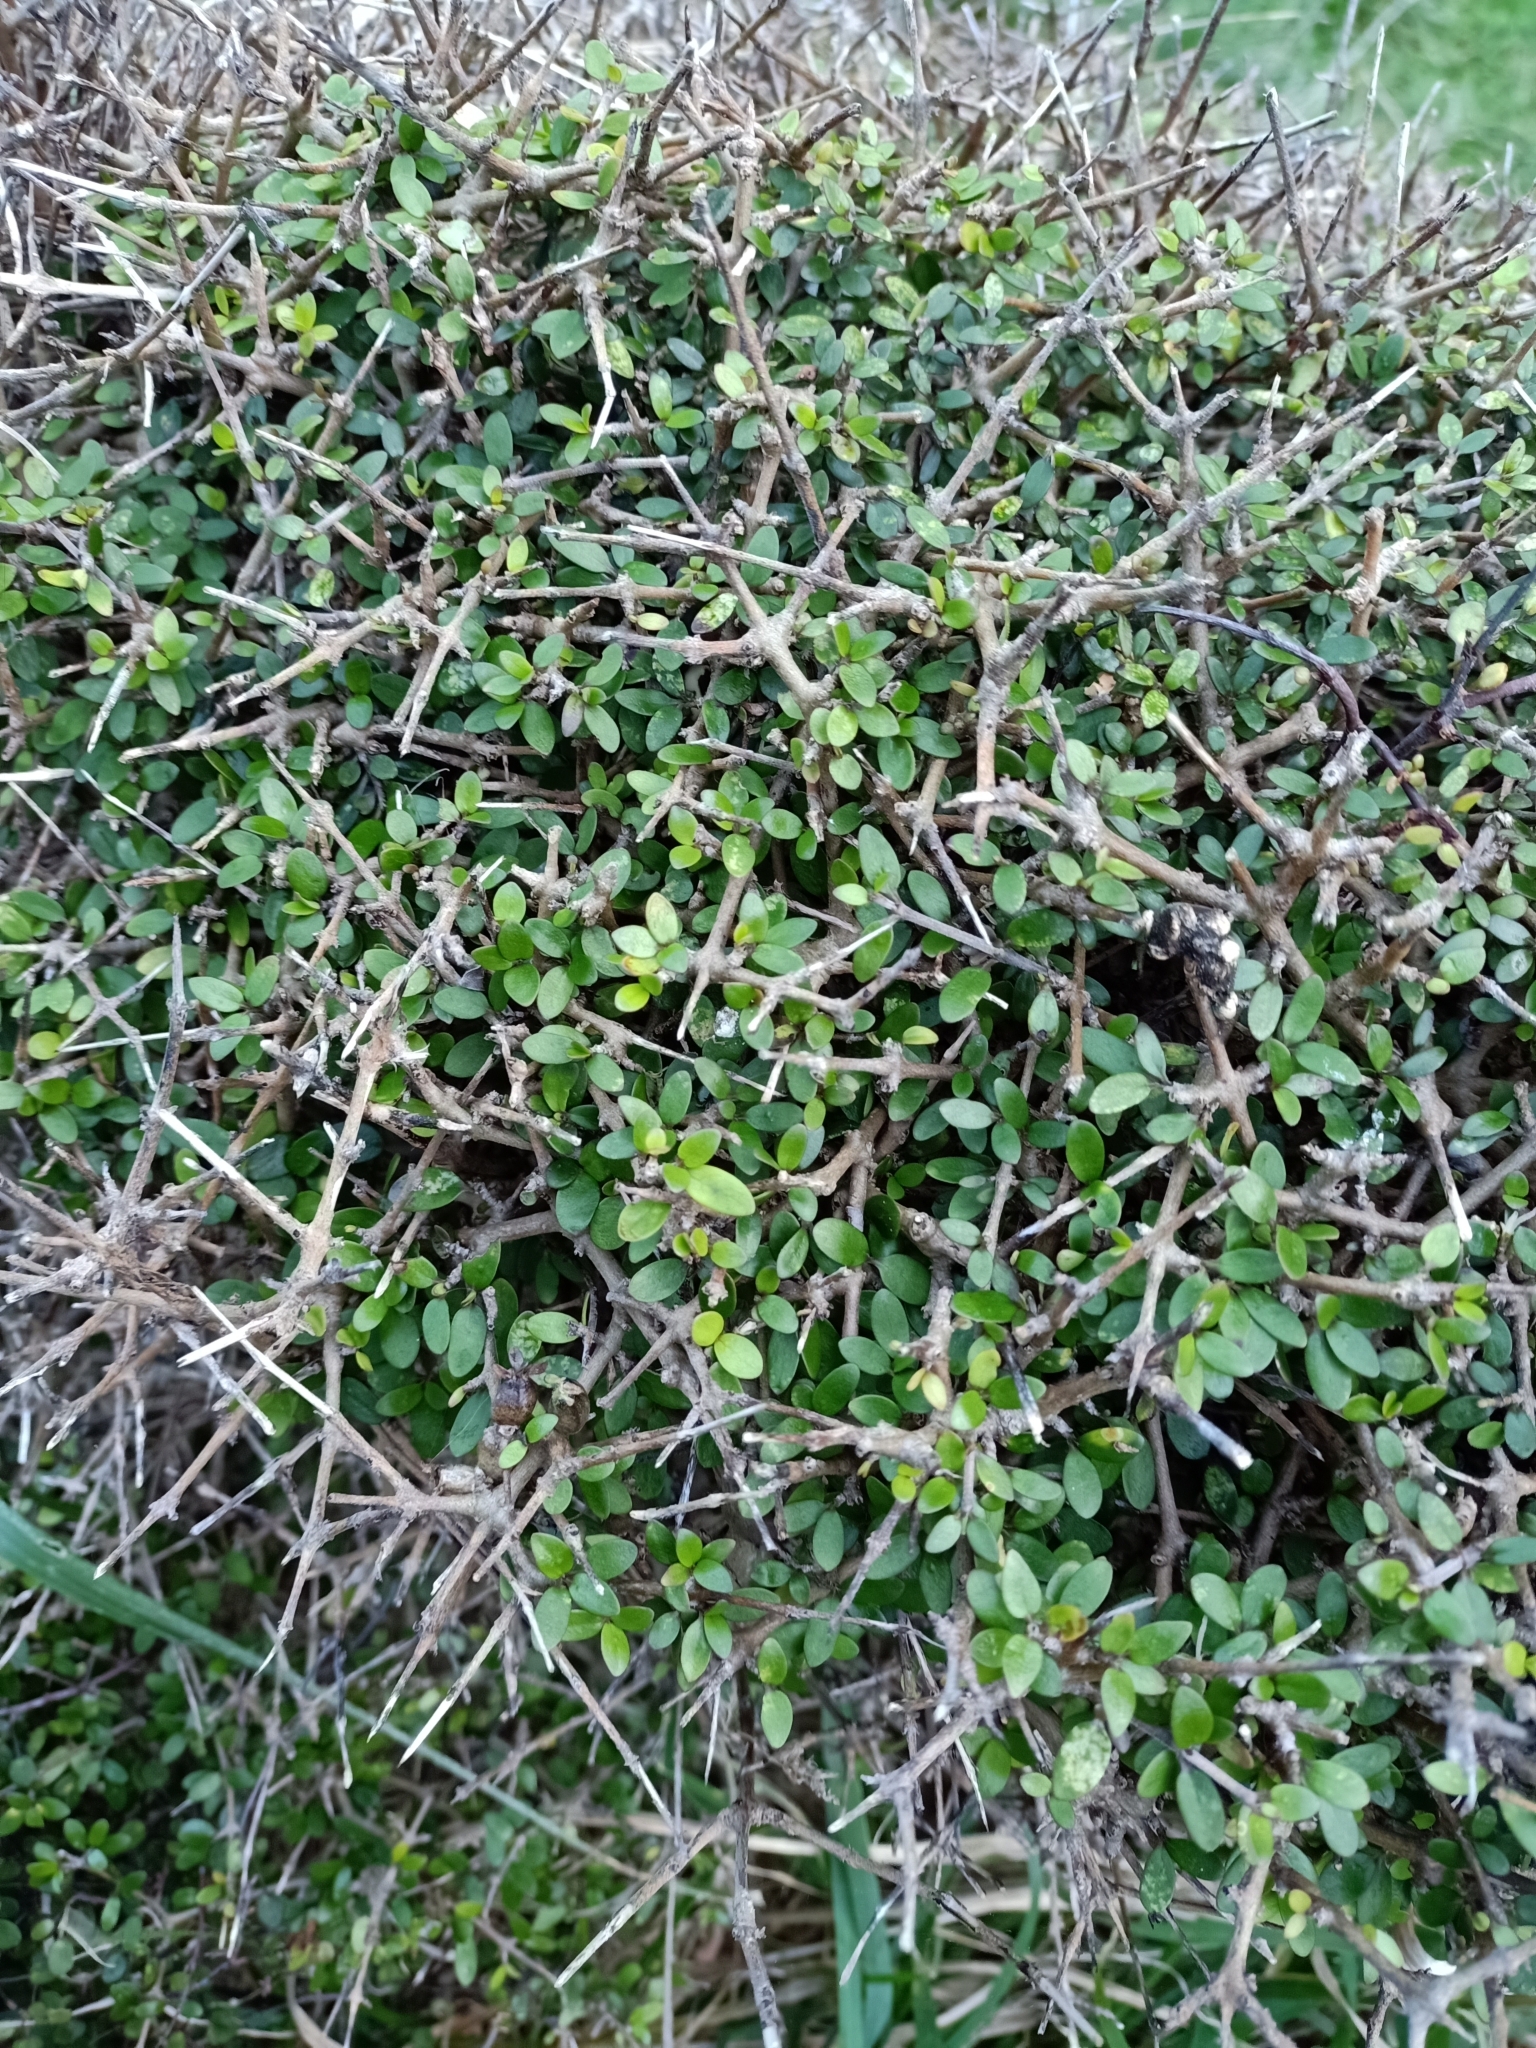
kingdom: Plantae
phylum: Tracheophyta
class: Magnoliopsida
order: Gentianales
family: Rubiaceae
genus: Coprosma
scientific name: Coprosma propinqua
